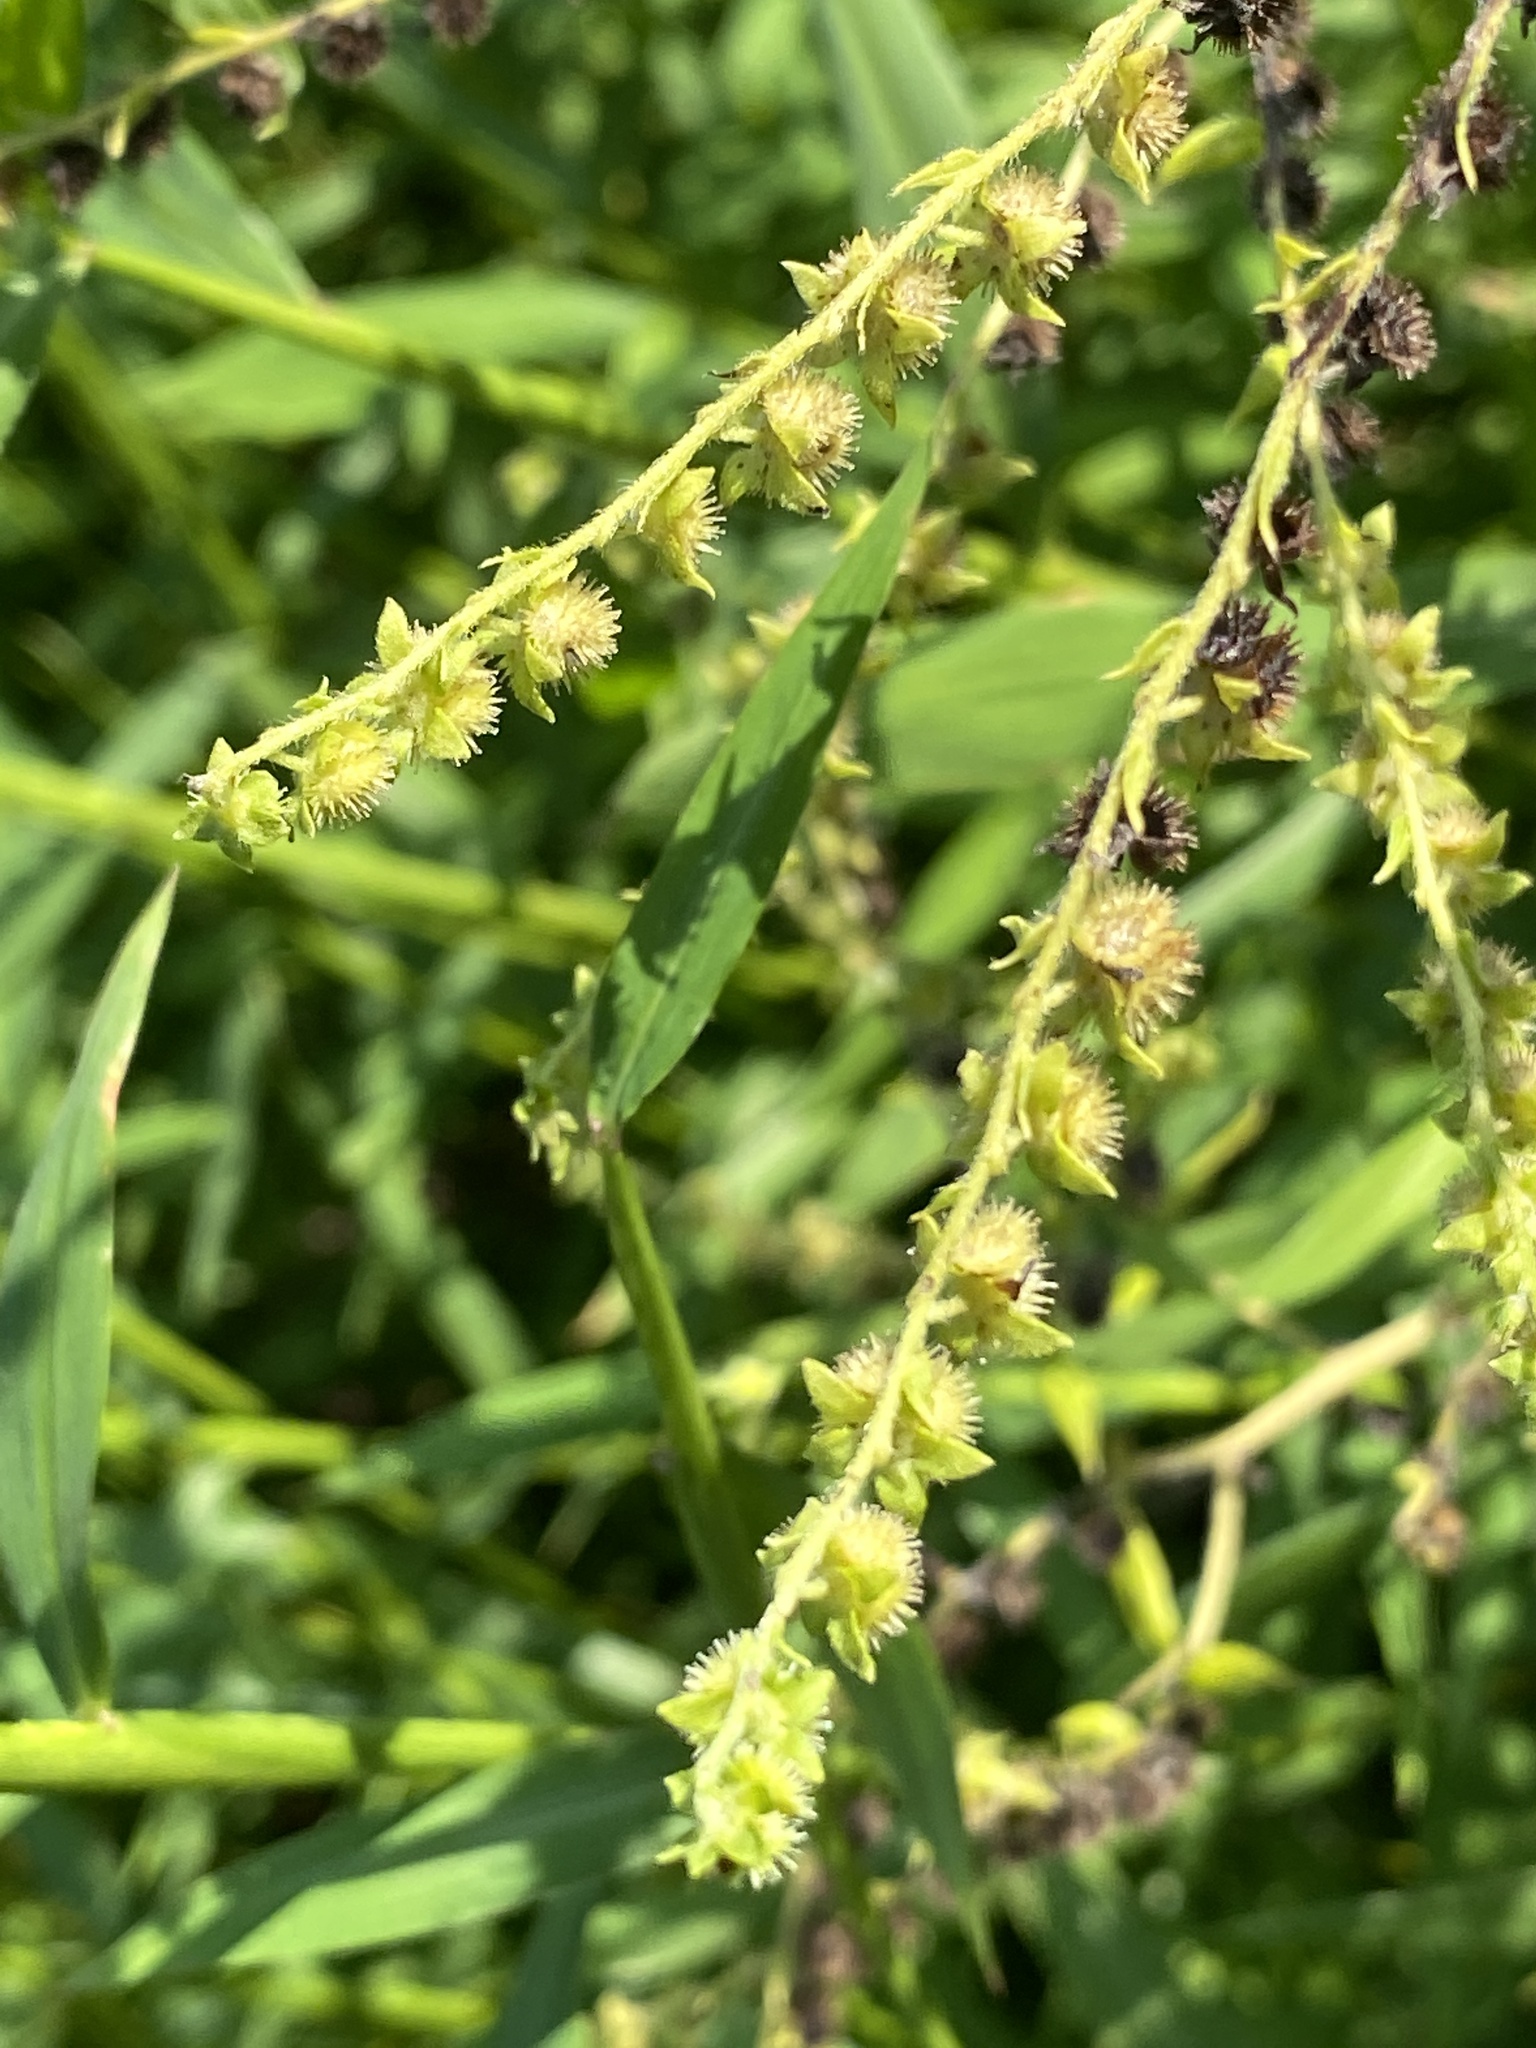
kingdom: Plantae
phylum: Tracheophyta
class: Magnoliopsida
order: Boraginales
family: Boraginaceae
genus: Hackelia
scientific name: Hackelia virginiana
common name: Beggar's-lice
